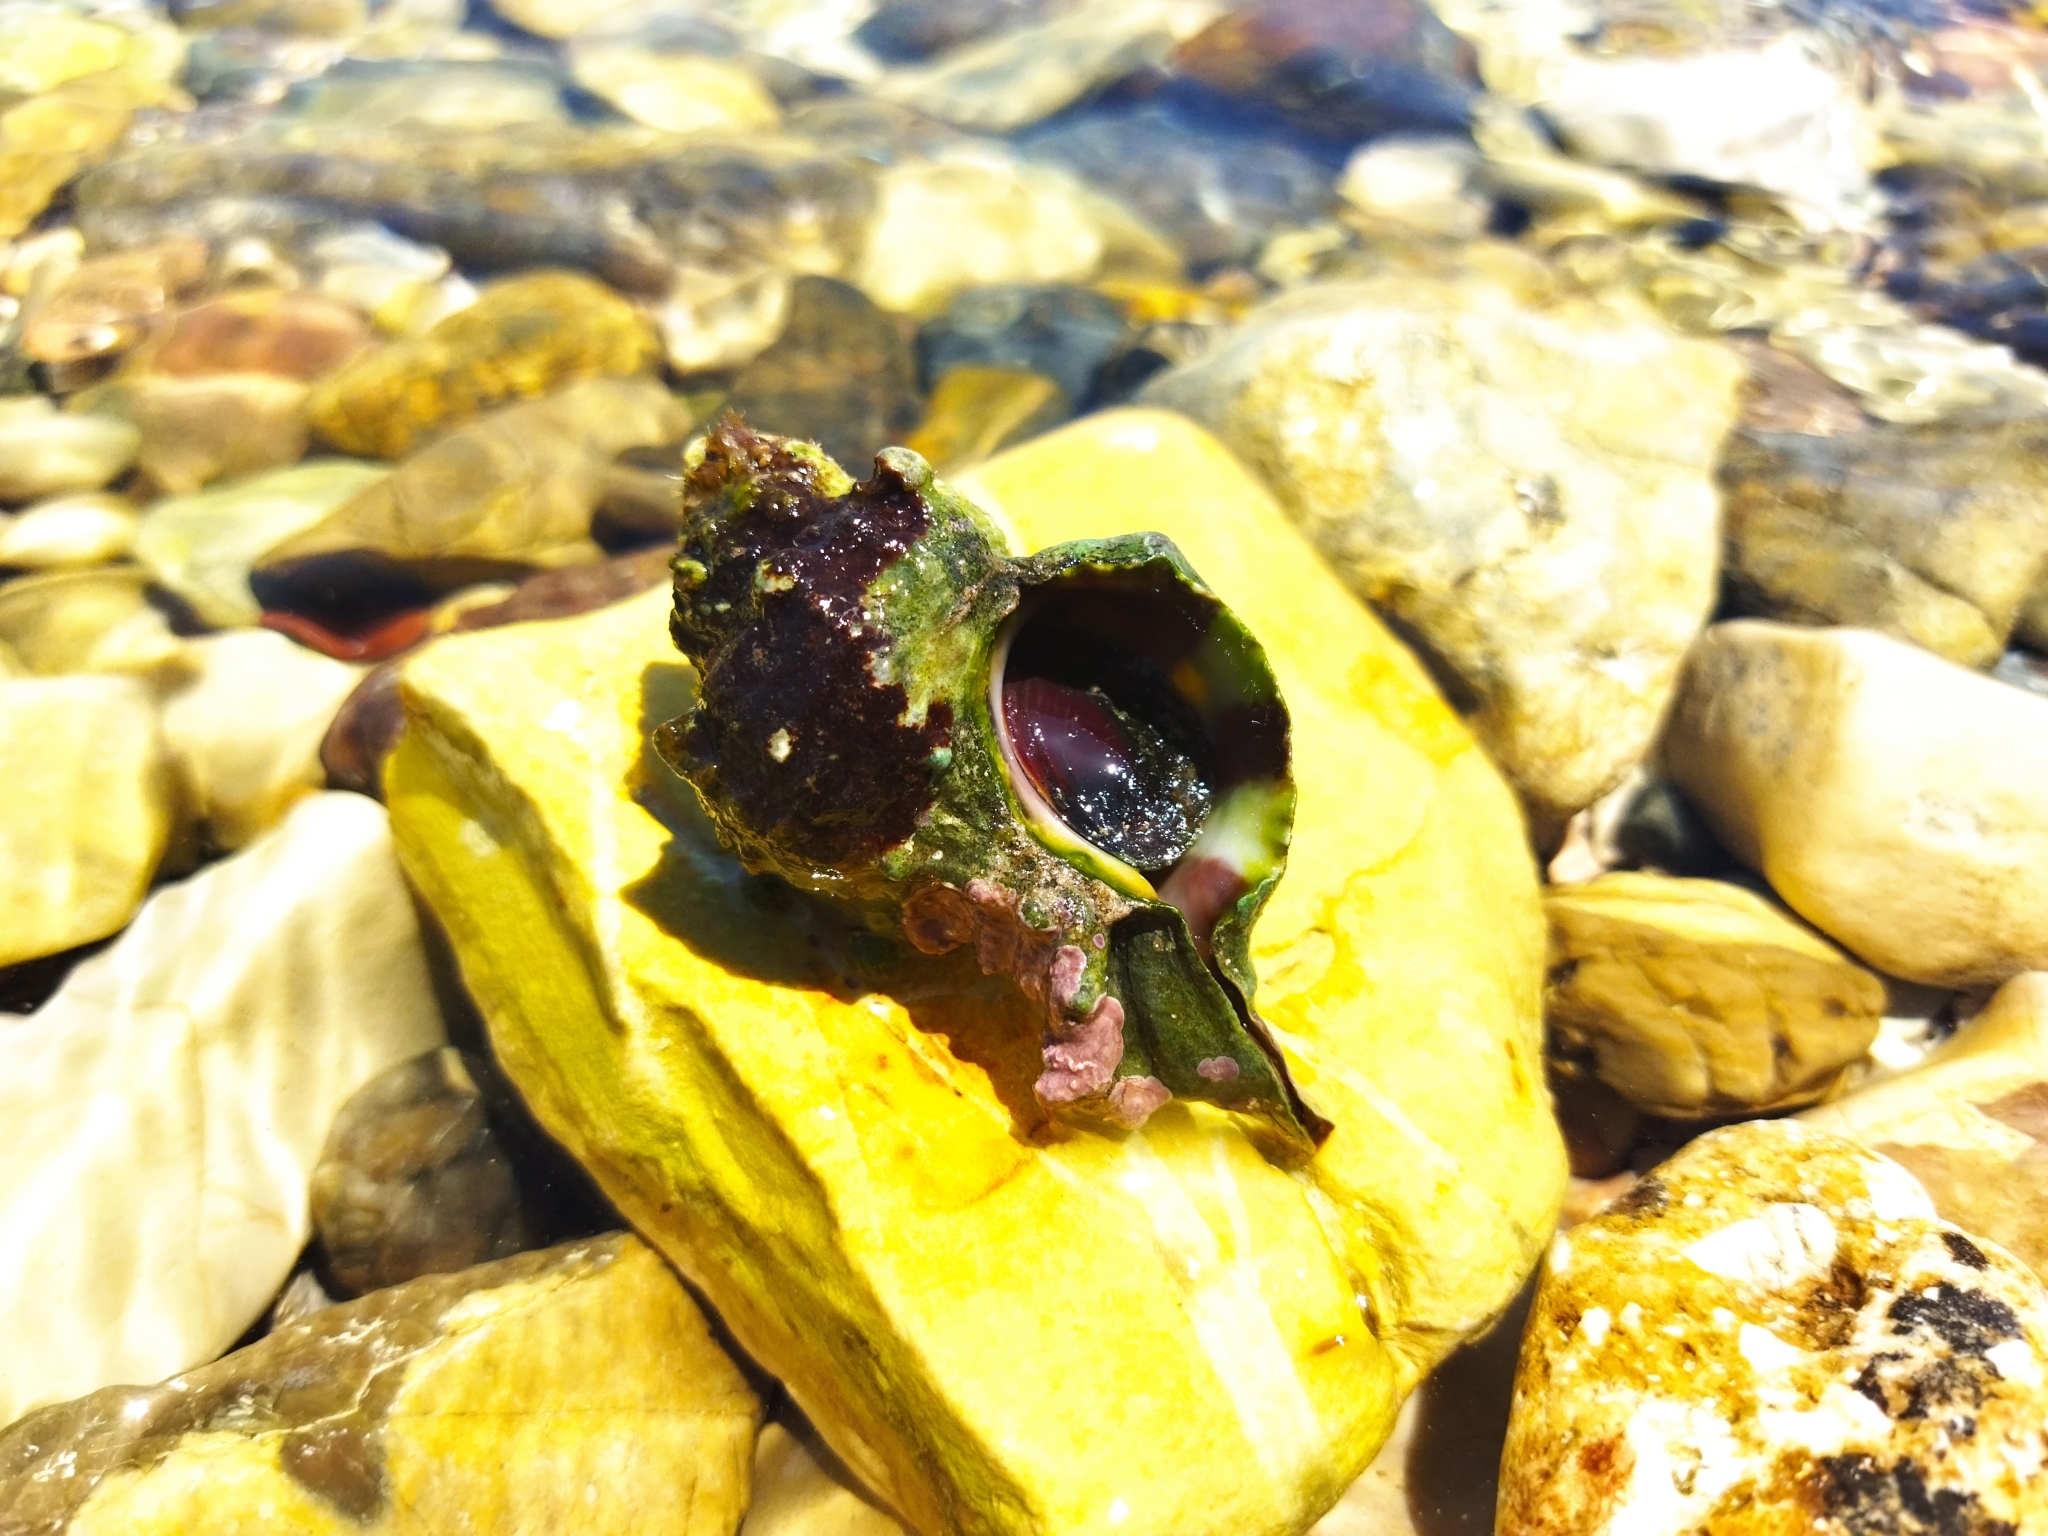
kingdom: Animalia
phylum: Mollusca
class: Gastropoda
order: Neogastropoda
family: Muricidae
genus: Hexaplex
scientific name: Hexaplex trunculus
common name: Banded dye-murex
